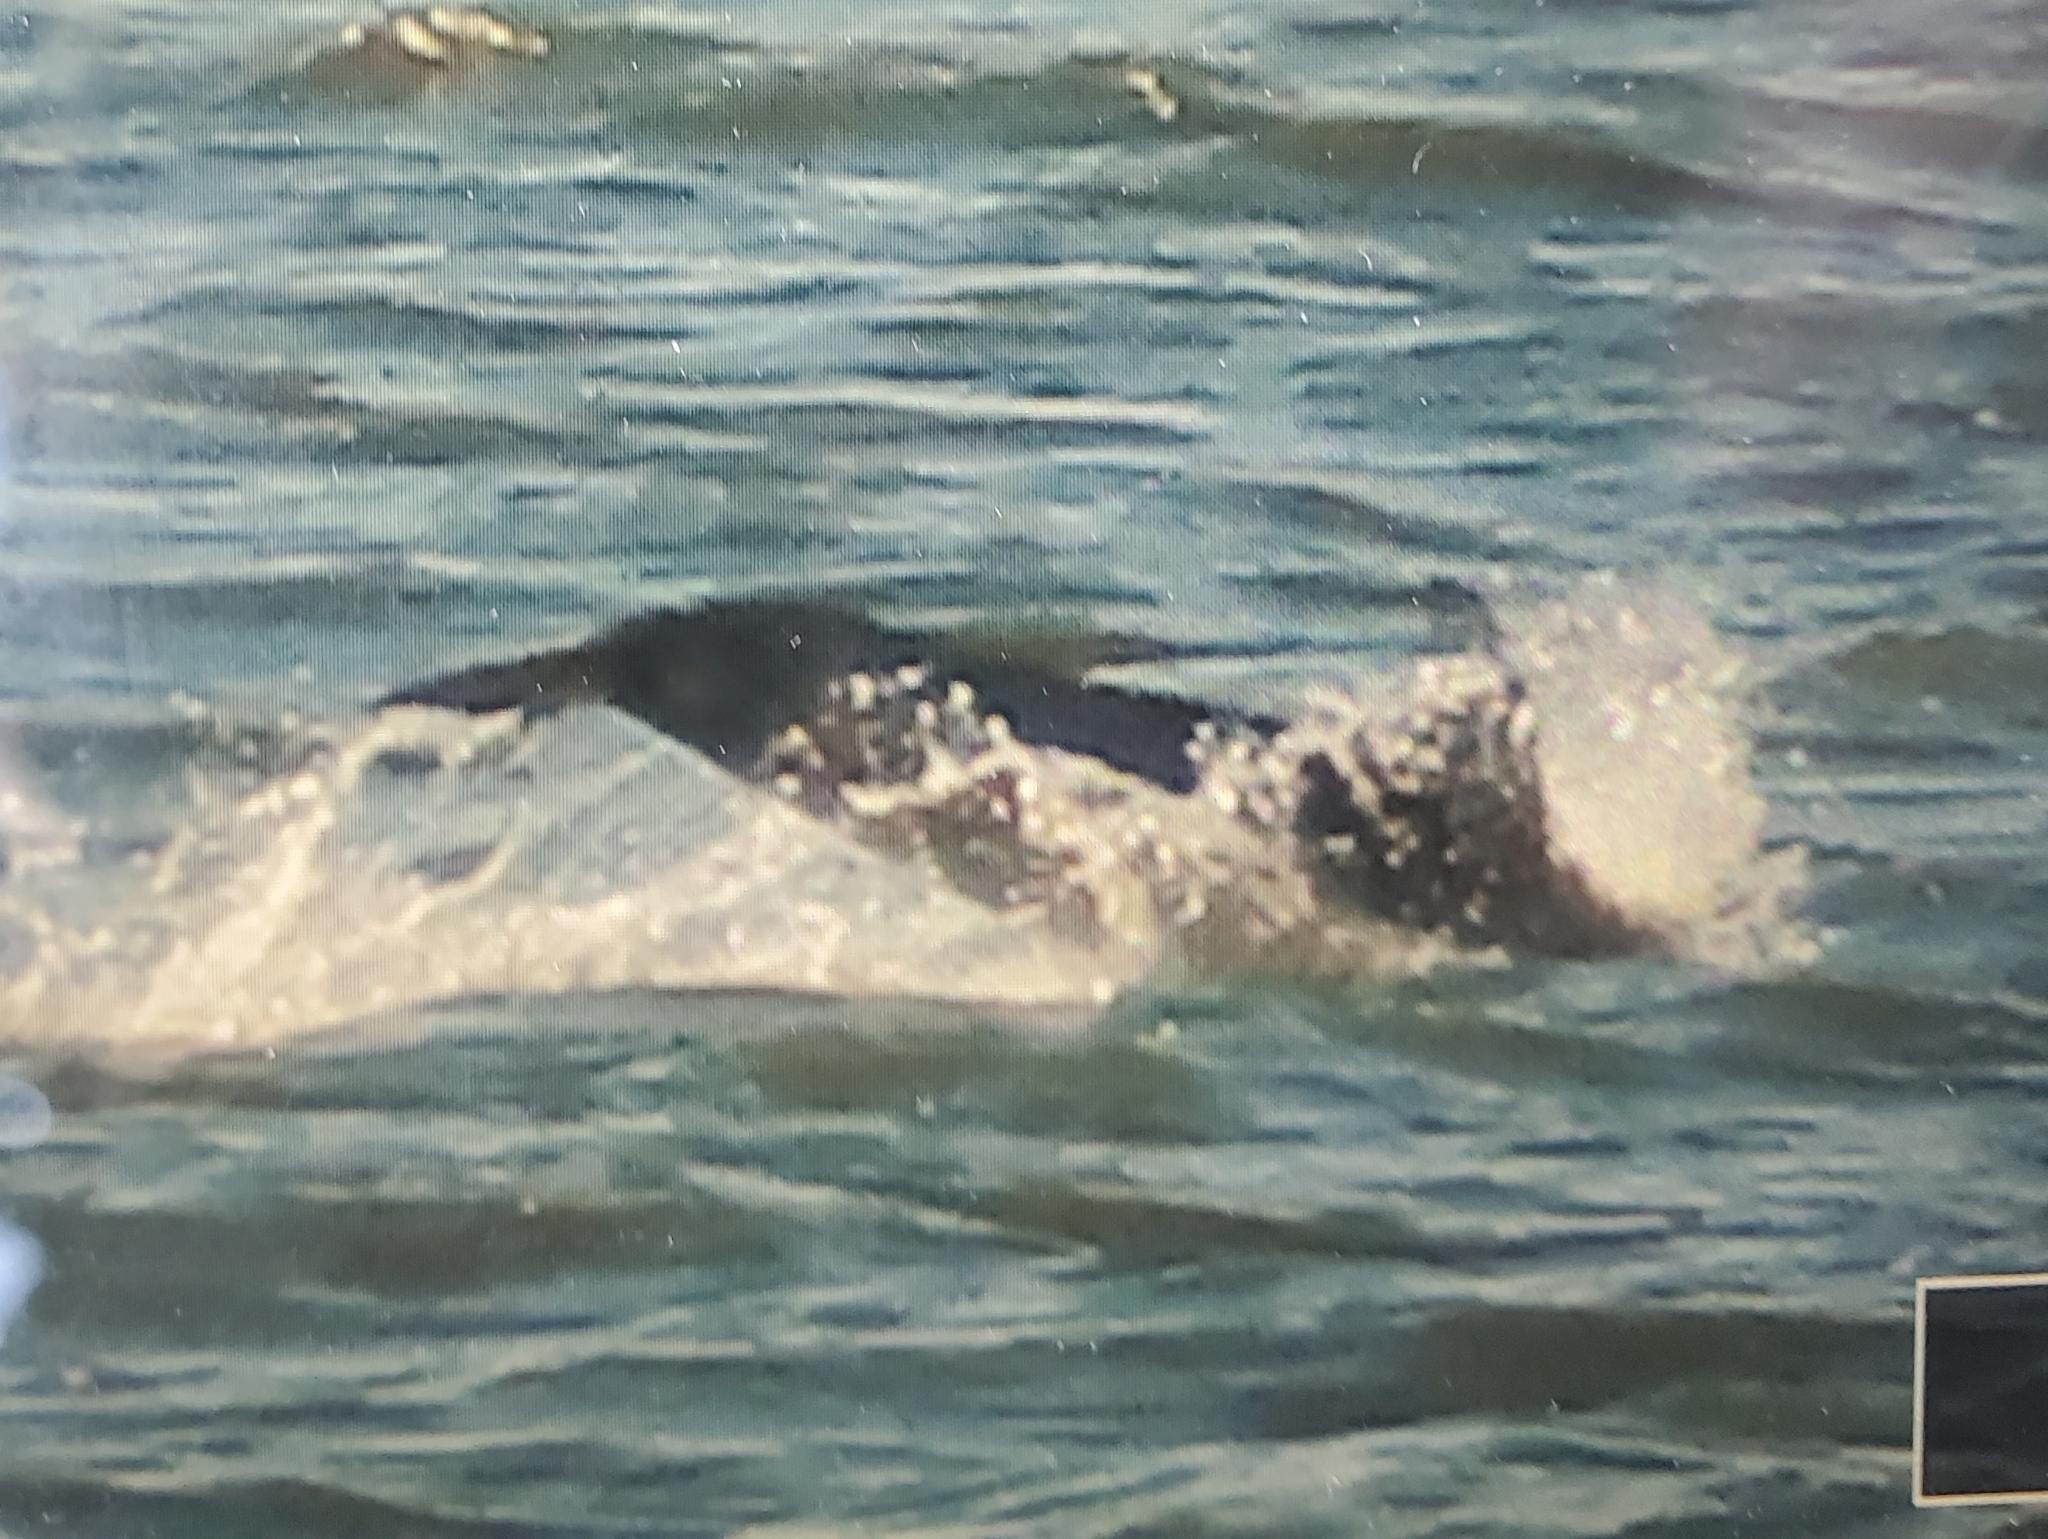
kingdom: Animalia
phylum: Chordata
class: Mammalia
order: Cetacea
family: Delphinidae
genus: Tursiops
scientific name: Tursiops truncatus
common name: Bottlenose dolphin
